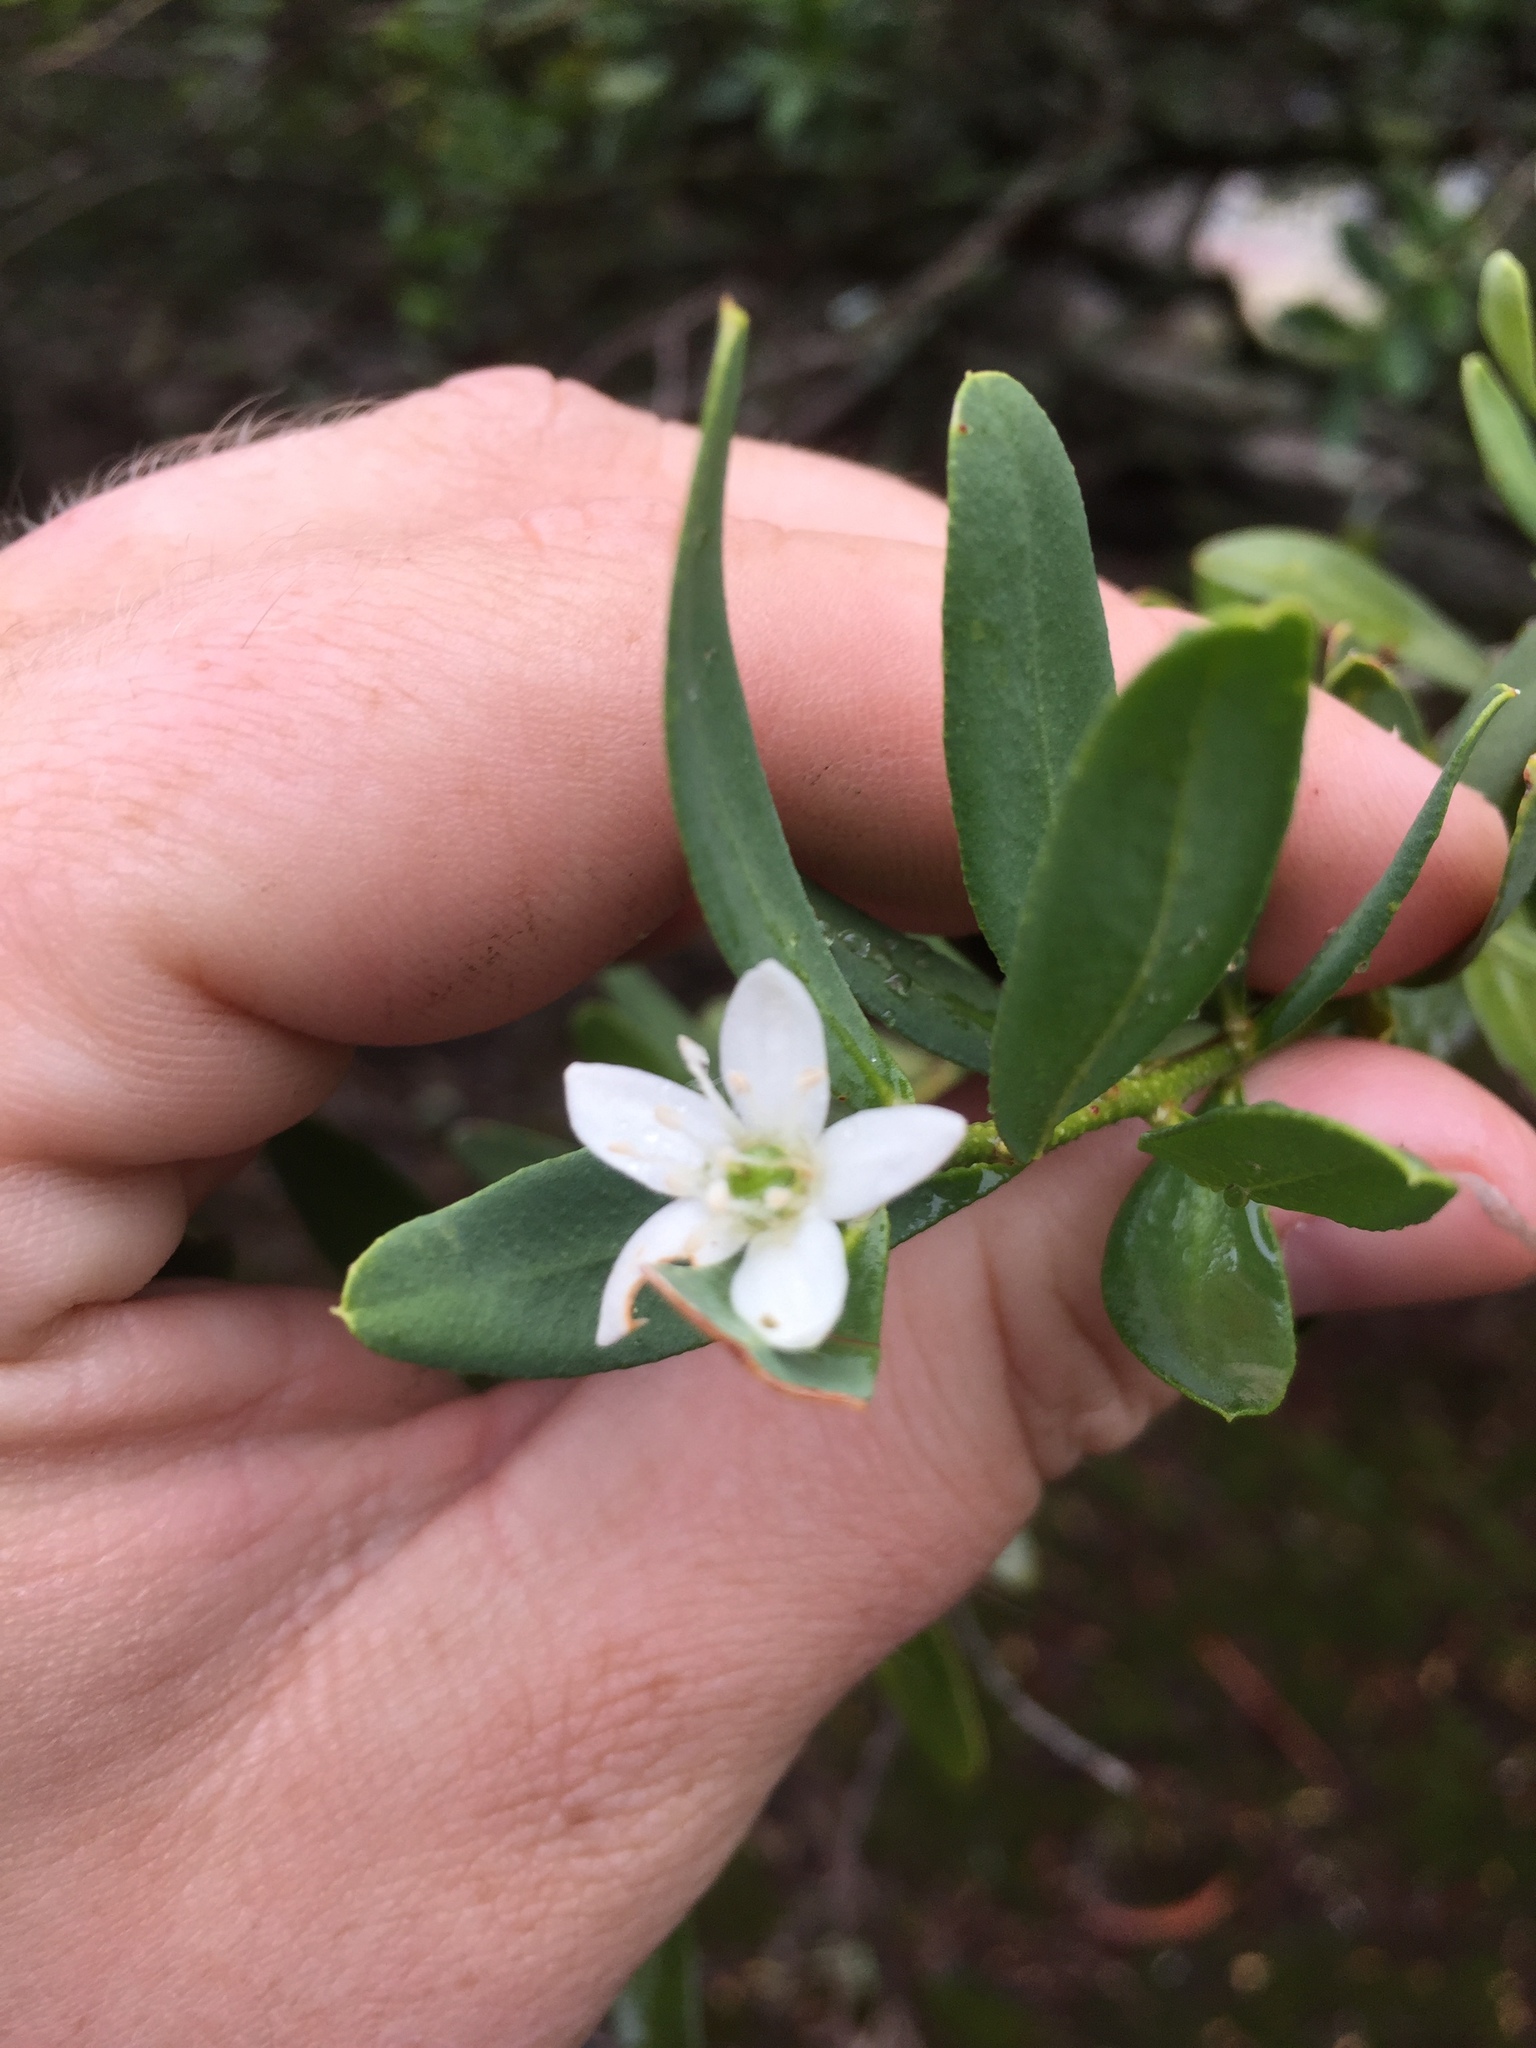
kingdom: Plantae
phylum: Tracheophyta
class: Magnoliopsida
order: Sapindales
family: Rutaceae
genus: Philotheca
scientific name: Philotheca trachyphylla
